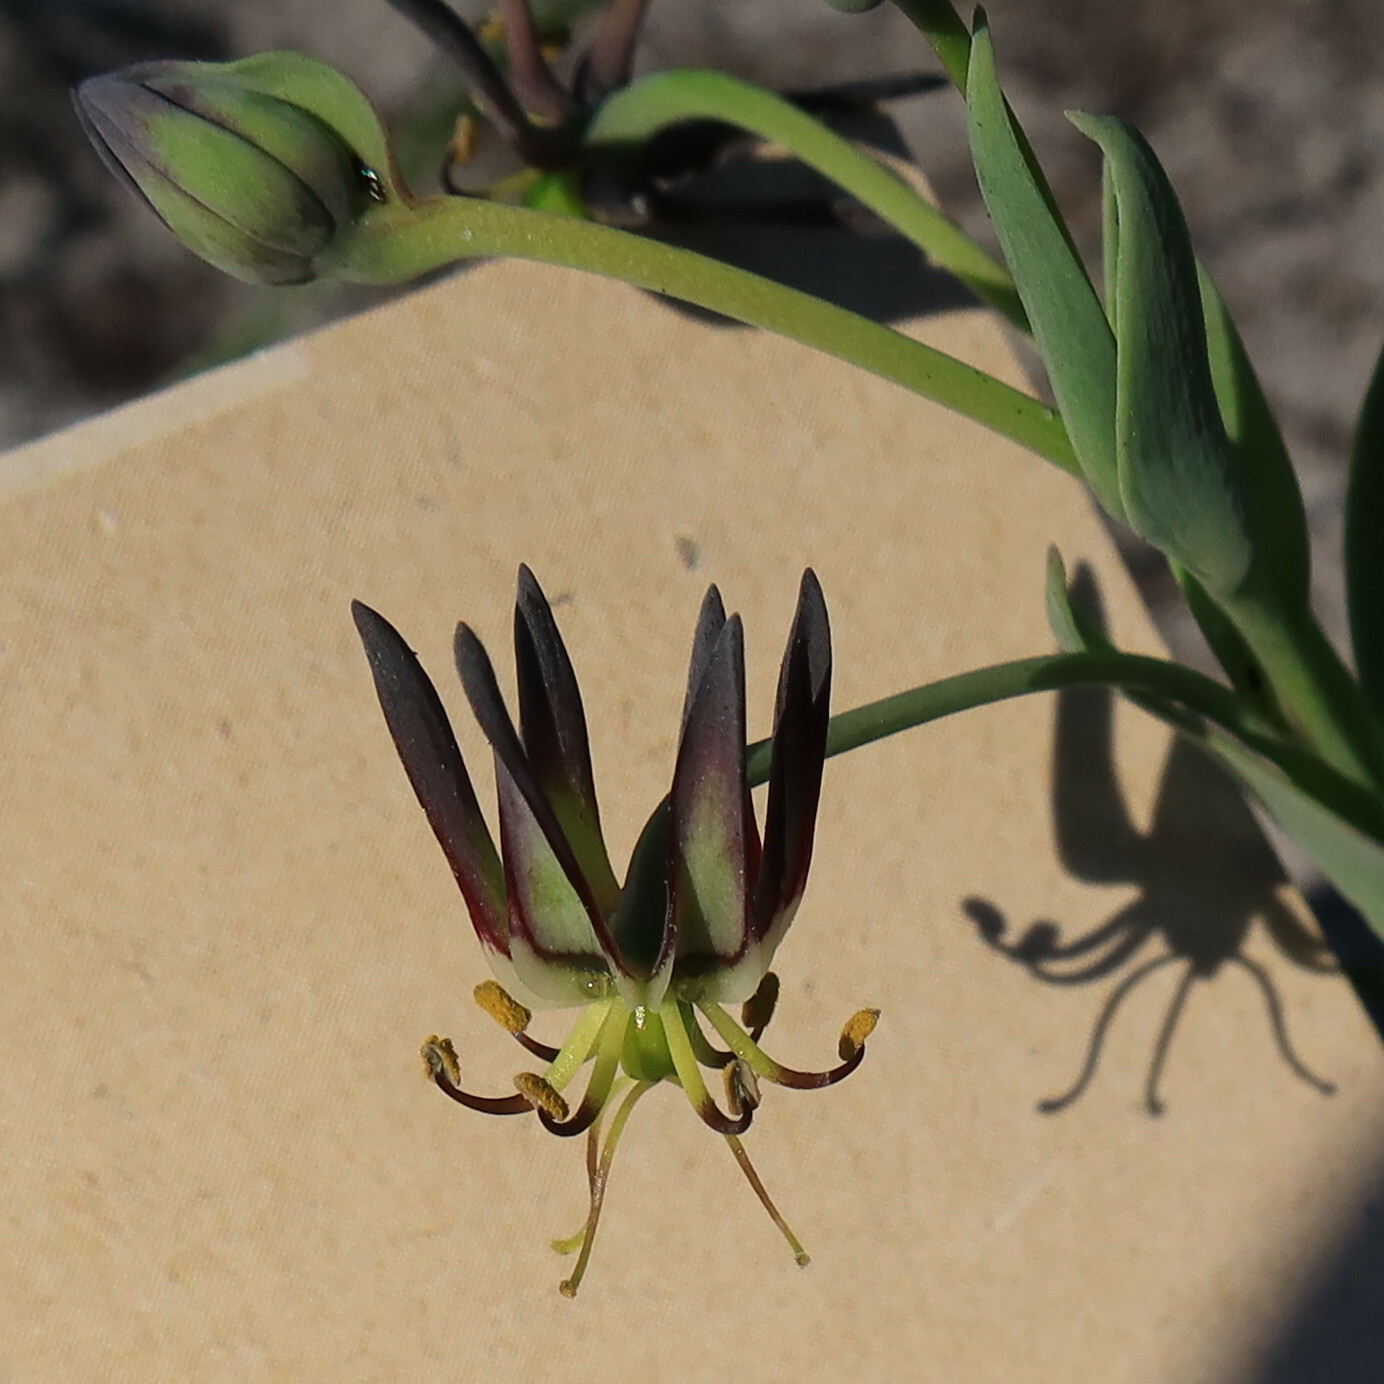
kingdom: Plantae
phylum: Tracheophyta
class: Liliopsida
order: Liliales
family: Colchicaceae
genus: Ornithoglossum
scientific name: Ornithoglossum viride
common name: Cape poison-onion
